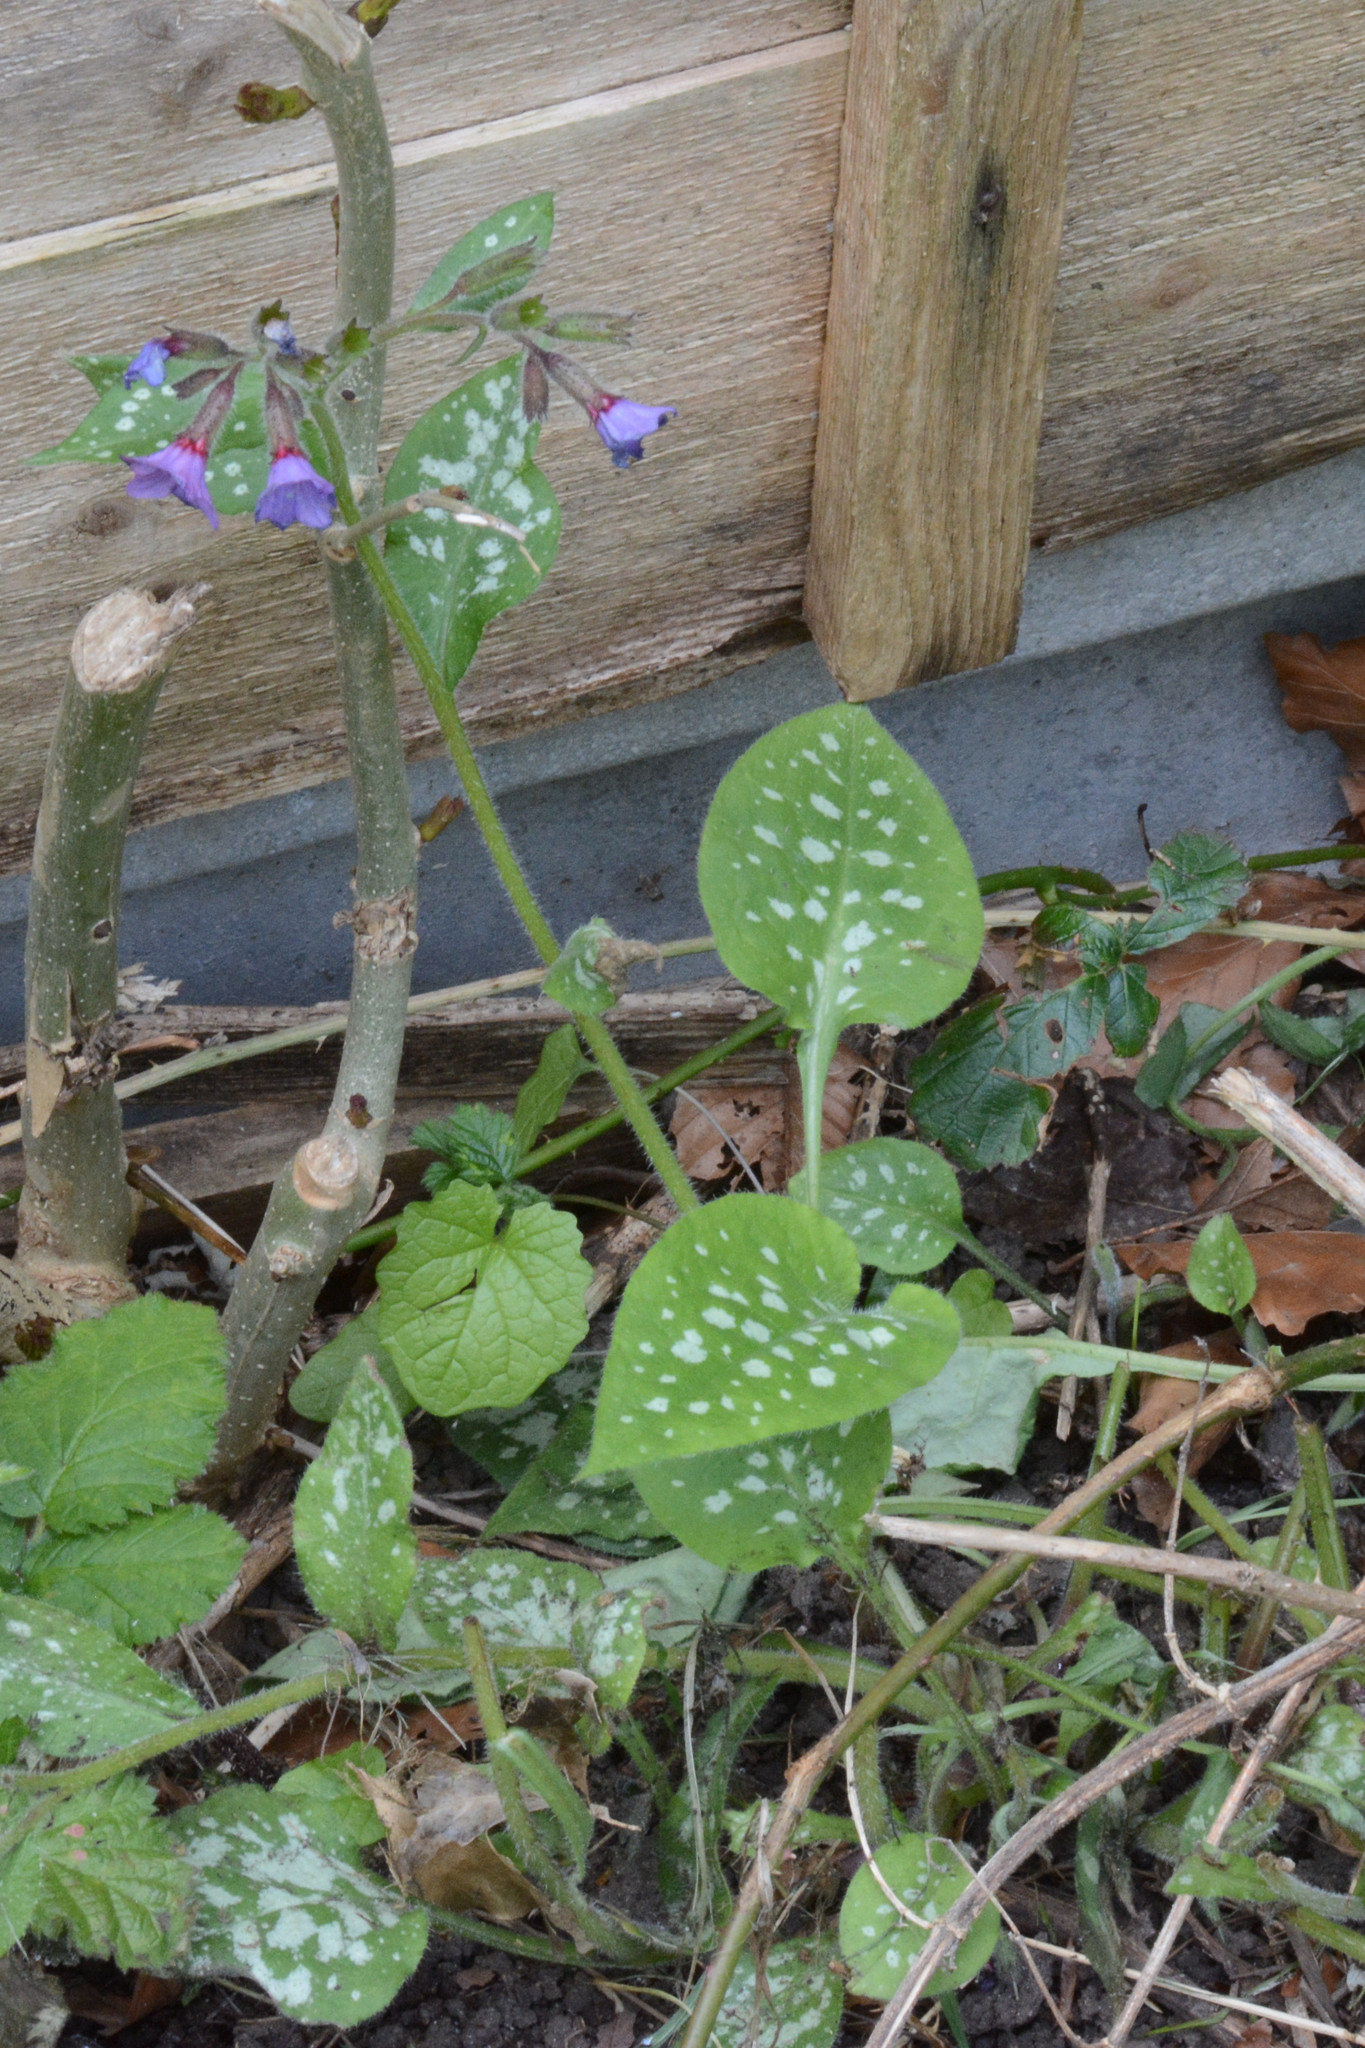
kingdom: Plantae
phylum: Tracheophyta
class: Magnoliopsida
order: Boraginales
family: Boraginaceae
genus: Pulmonaria
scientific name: Pulmonaria officinalis
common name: Lungwort
